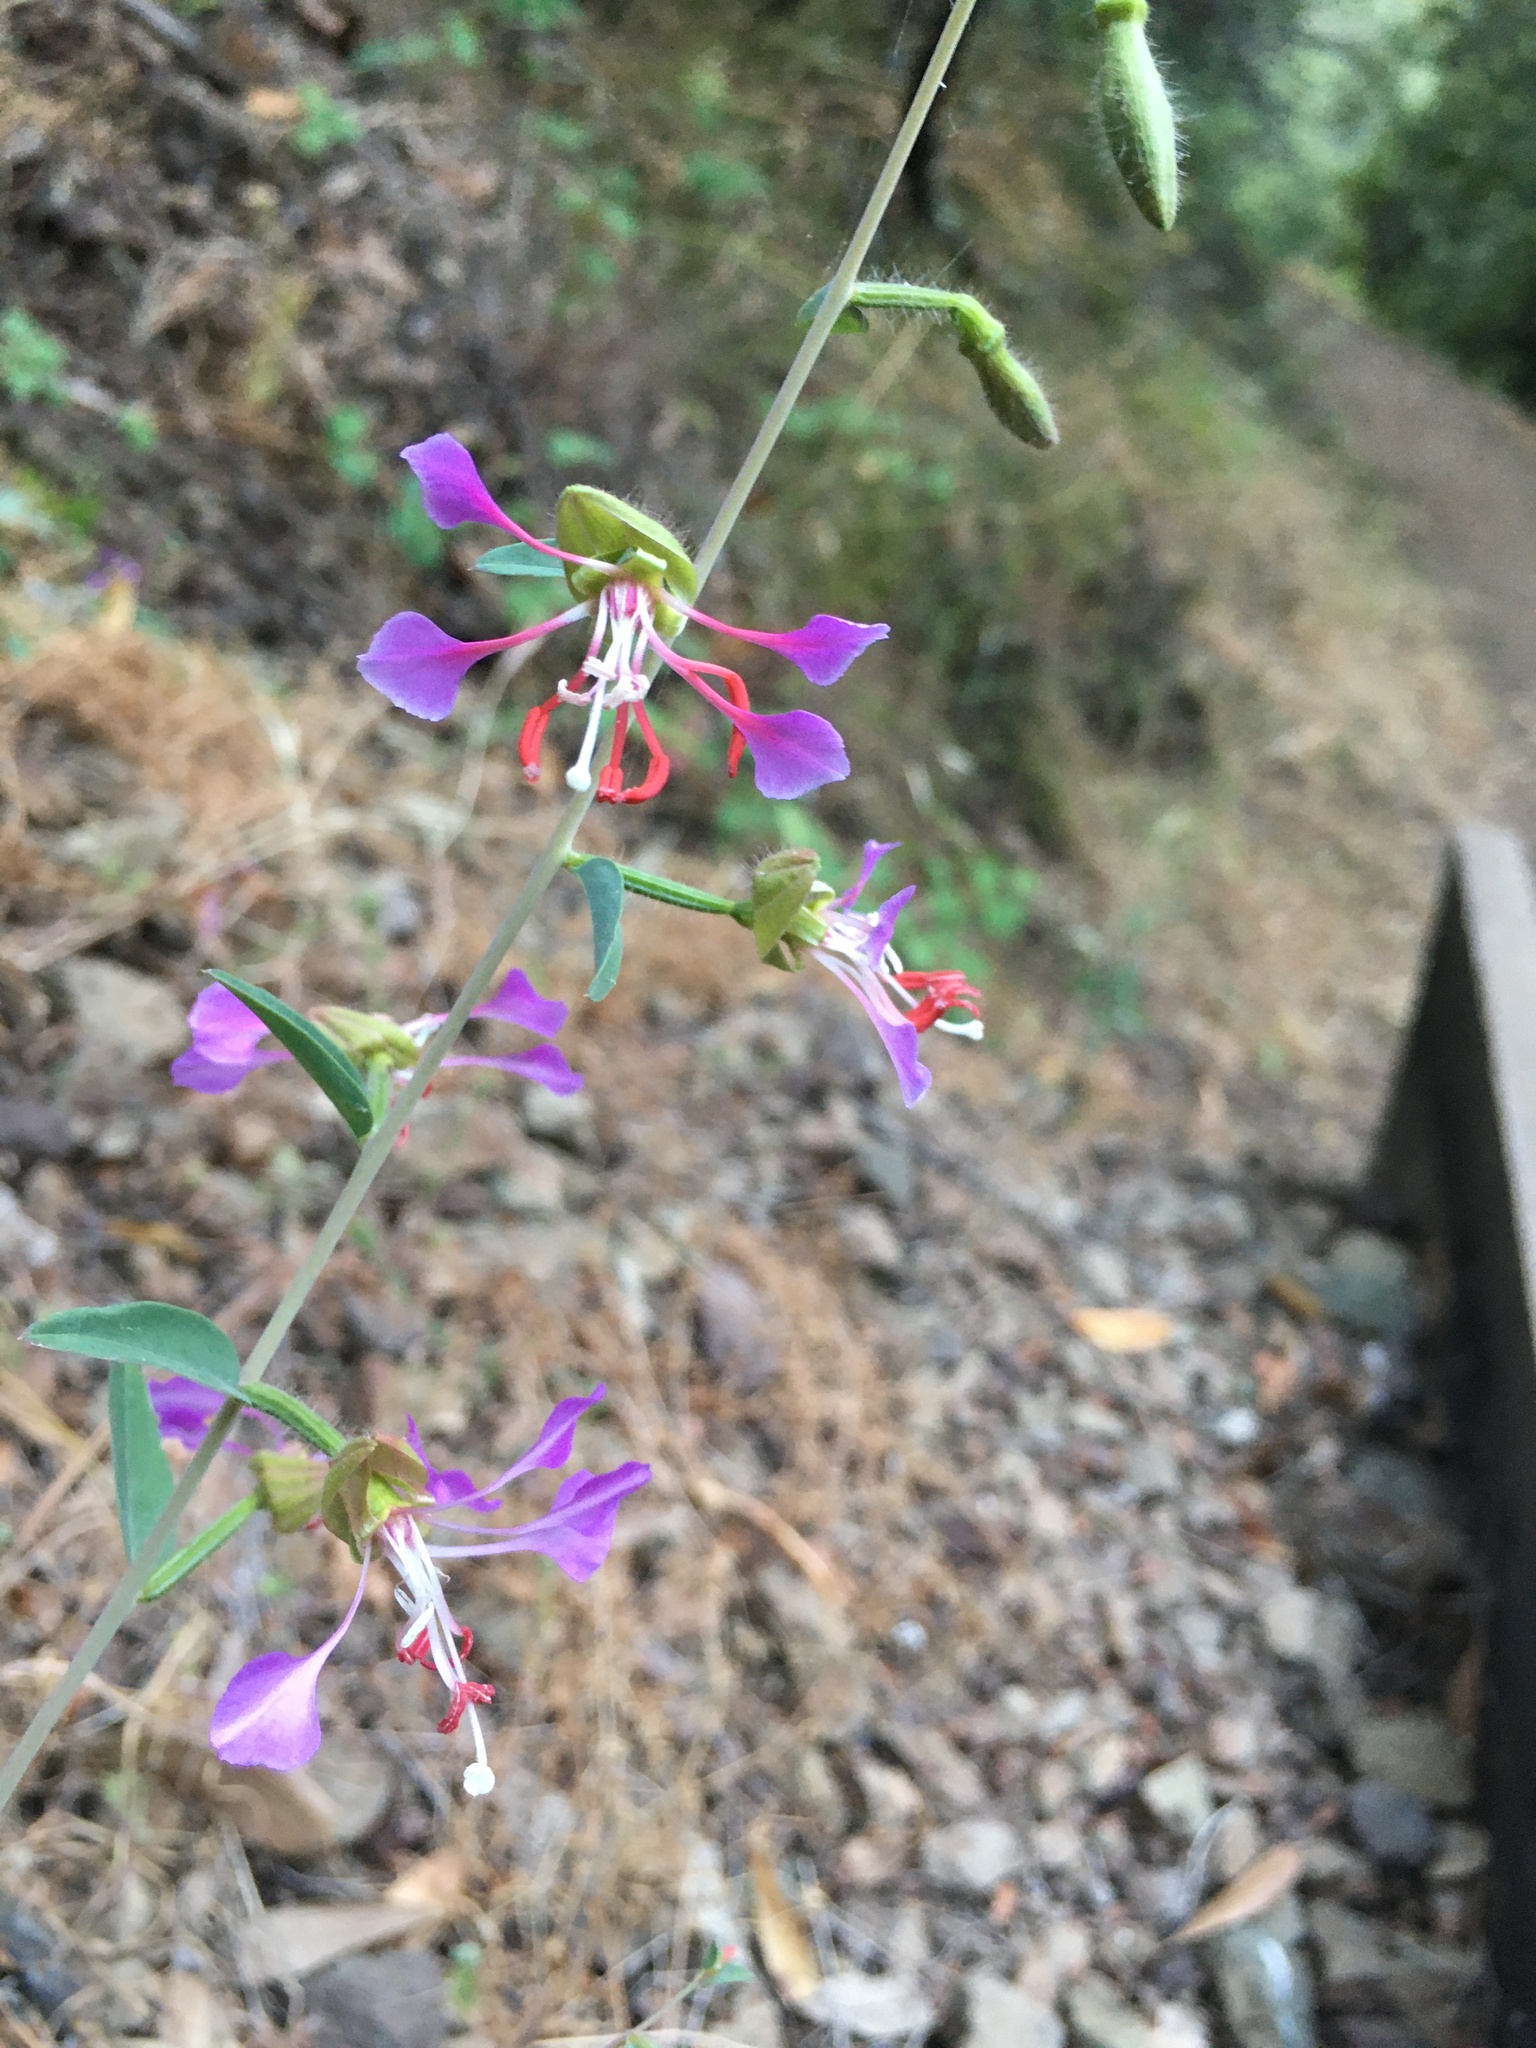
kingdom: Plantae
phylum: Tracheophyta
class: Magnoliopsida
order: Myrtales
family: Onagraceae
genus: Clarkia
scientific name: Clarkia unguiculata
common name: Clarkia
